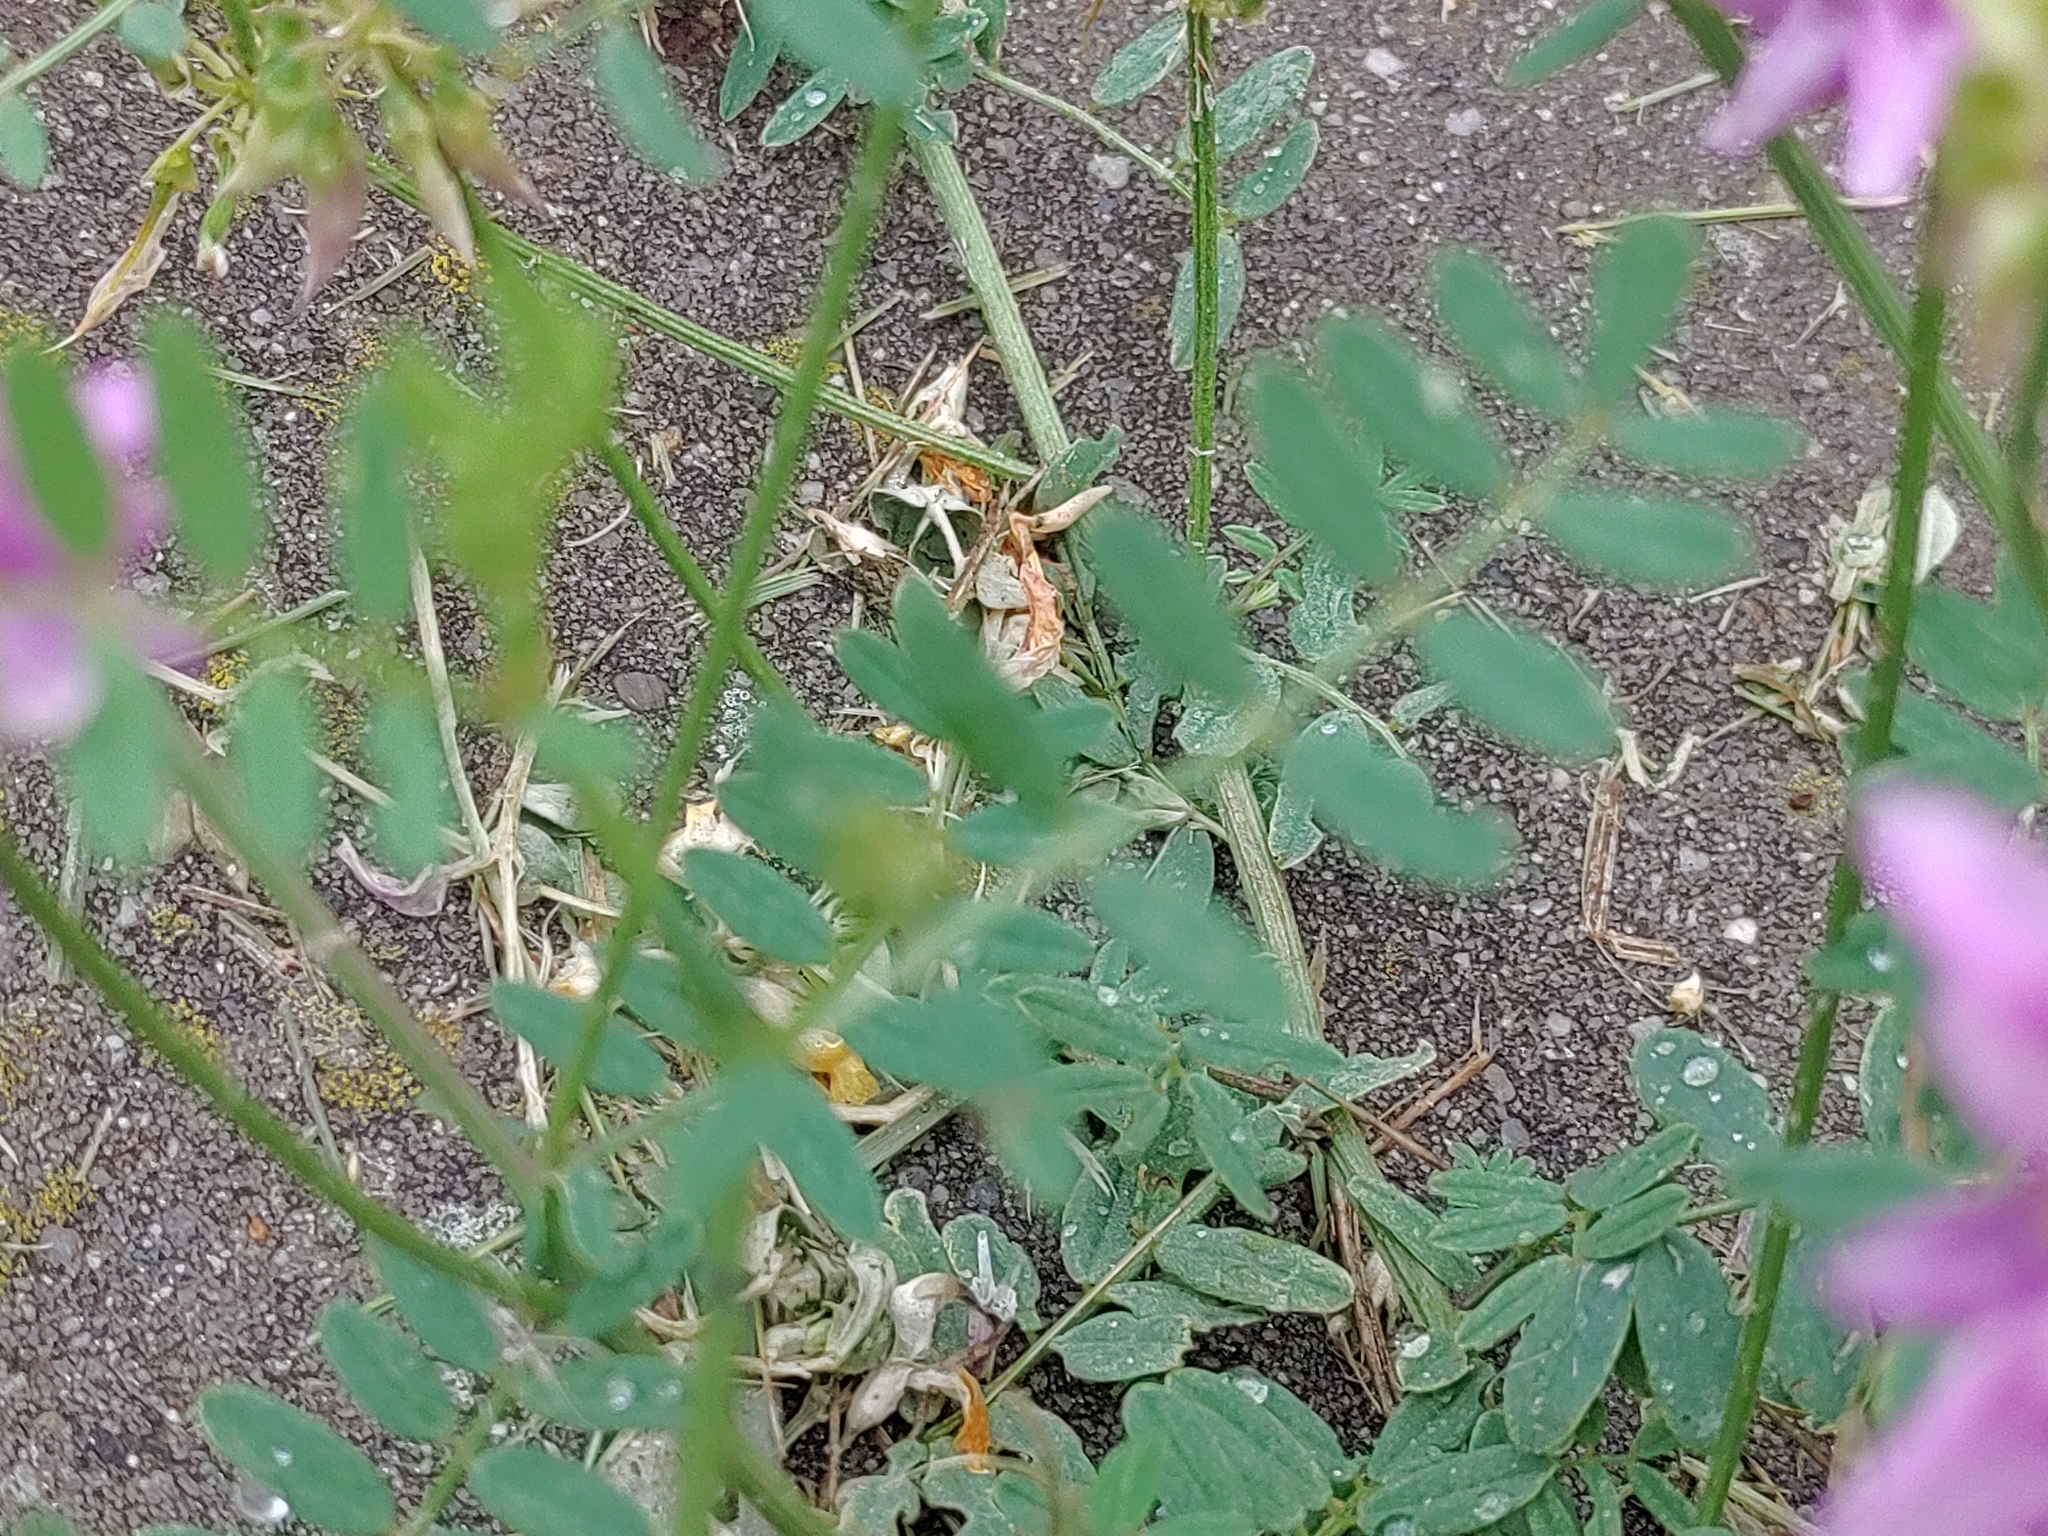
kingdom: Plantae
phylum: Tracheophyta
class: Magnoliopsida
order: Fabales
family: Fabaceae
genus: Coronilla
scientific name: Coronilla varia
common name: Crownvetch
